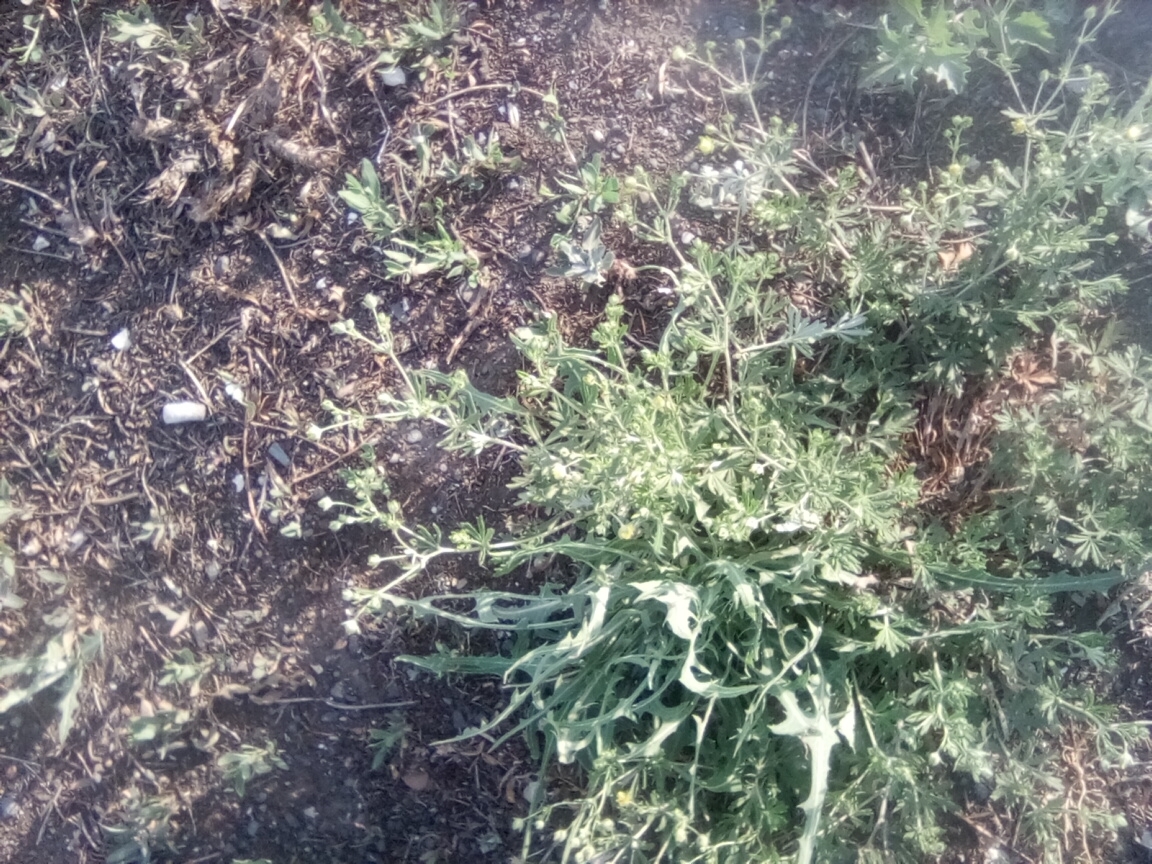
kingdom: Plantae
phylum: Tracheophyta
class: Magnoliopsida
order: Rosales
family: Rosaceae
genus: Potentilla
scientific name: Potentilla argentea
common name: Hoary cinquefoil
